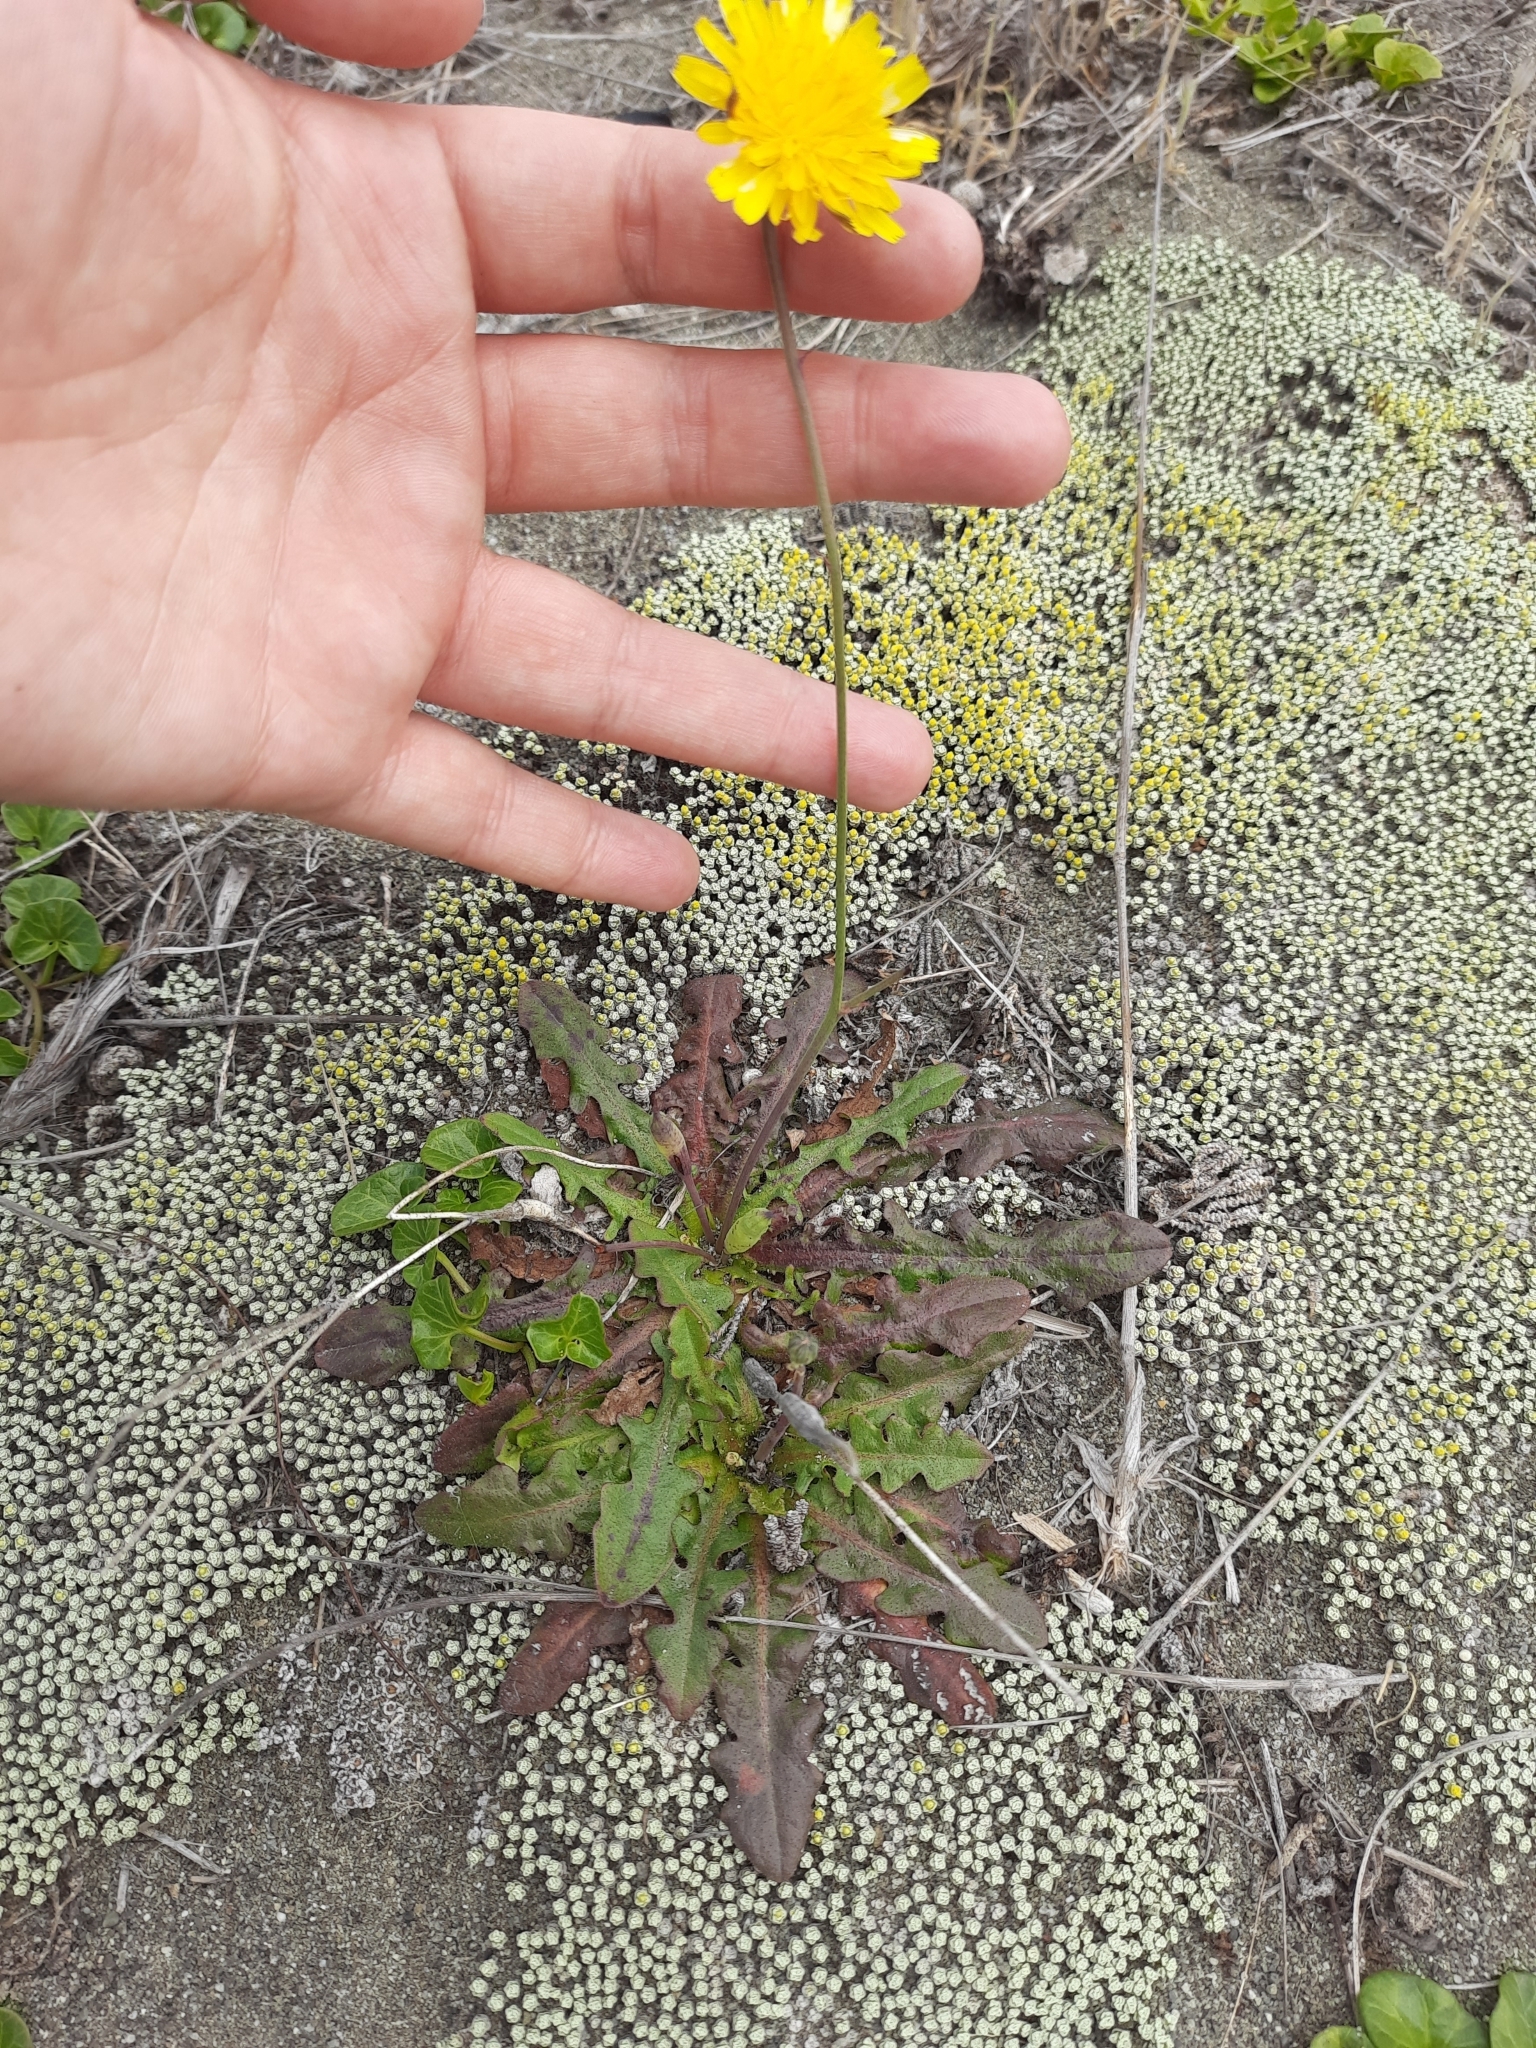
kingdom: Plantae
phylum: Tracheophyta
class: Magnoliopsida
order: Asterales
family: Asteraceae
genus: Hypochaeris
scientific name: Hypochaeris radicata
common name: Flatweed
